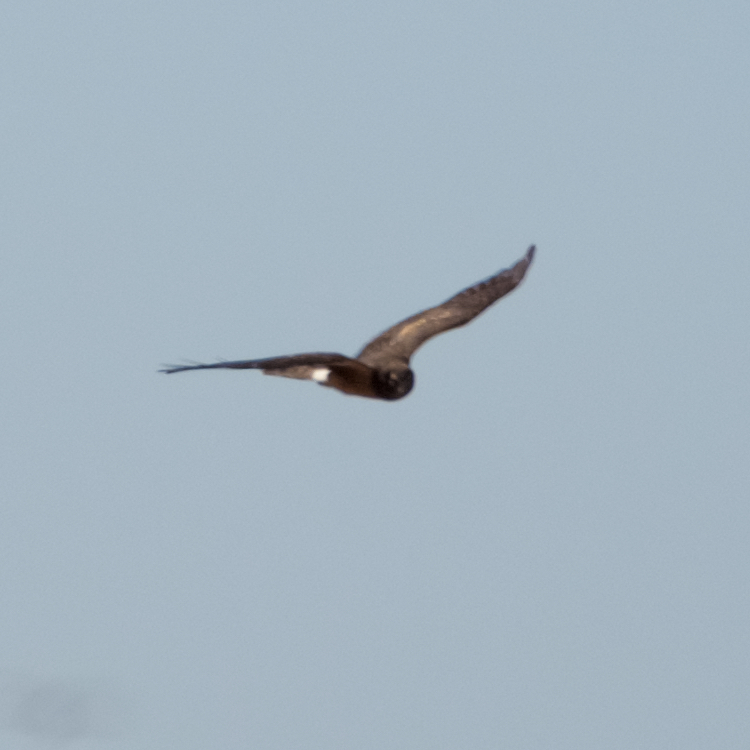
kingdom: Animalia
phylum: Chordata
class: Aves
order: Accipitriformes
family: Accipitridae
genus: Circus
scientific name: Circus cyaneus
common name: Hen harrier
